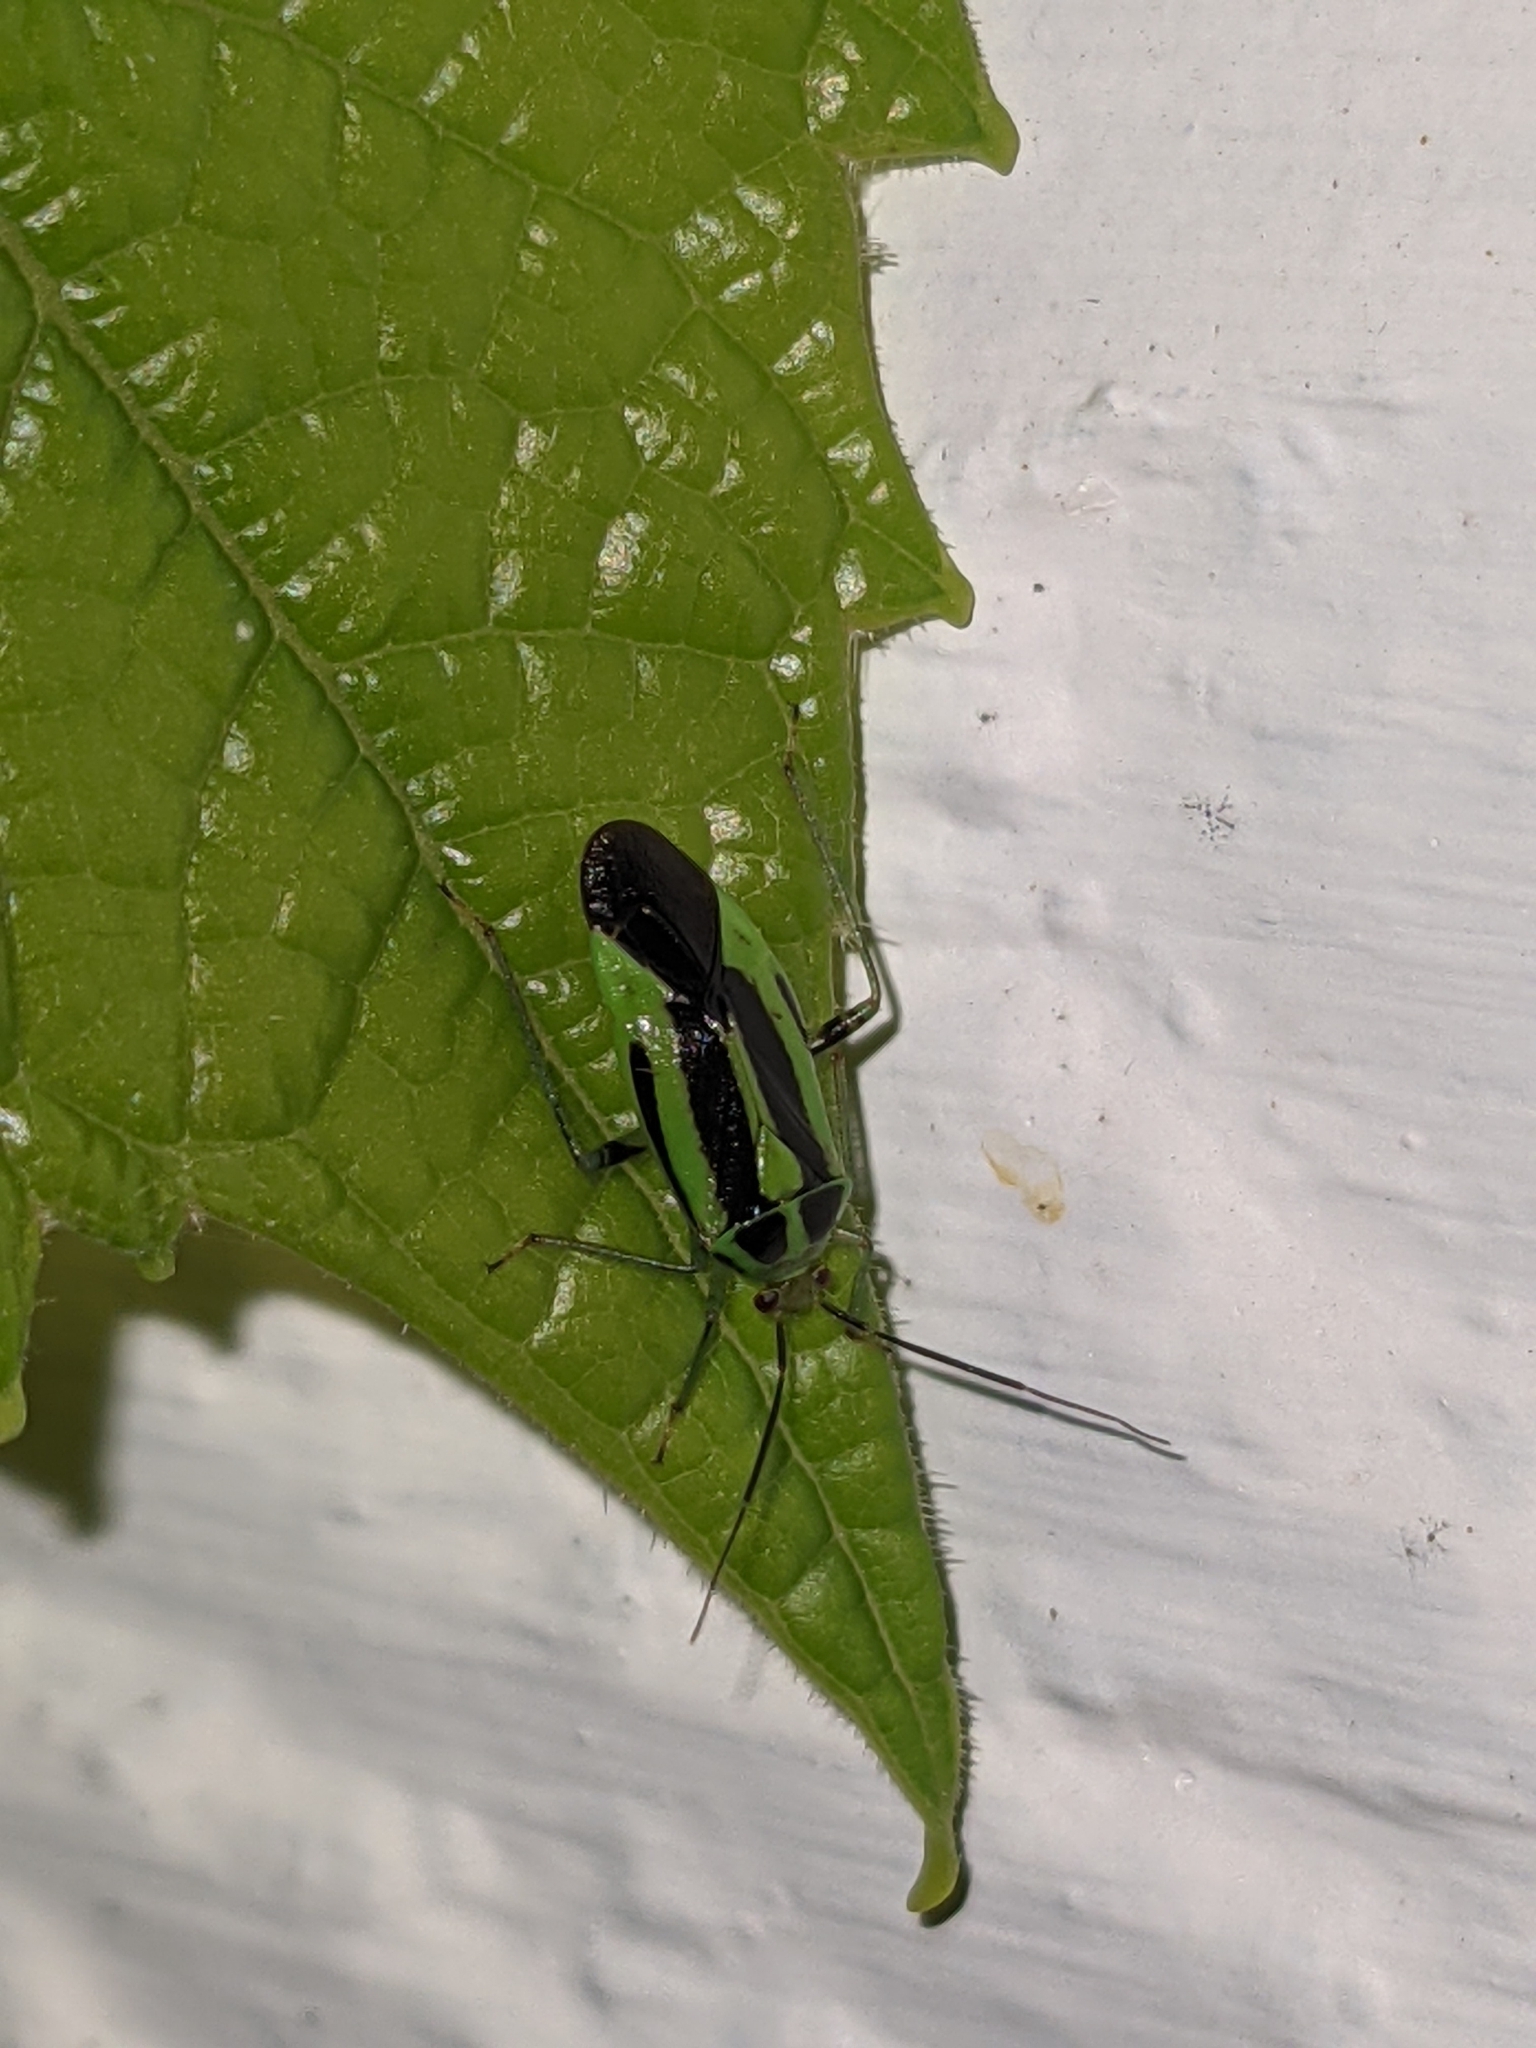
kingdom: Animalia
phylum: Arthropoda
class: Insecta
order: Hemiptera
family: Miridae
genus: Poecilocapsus
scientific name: Poecilocapsus lineatus
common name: Four-lined plant bug
